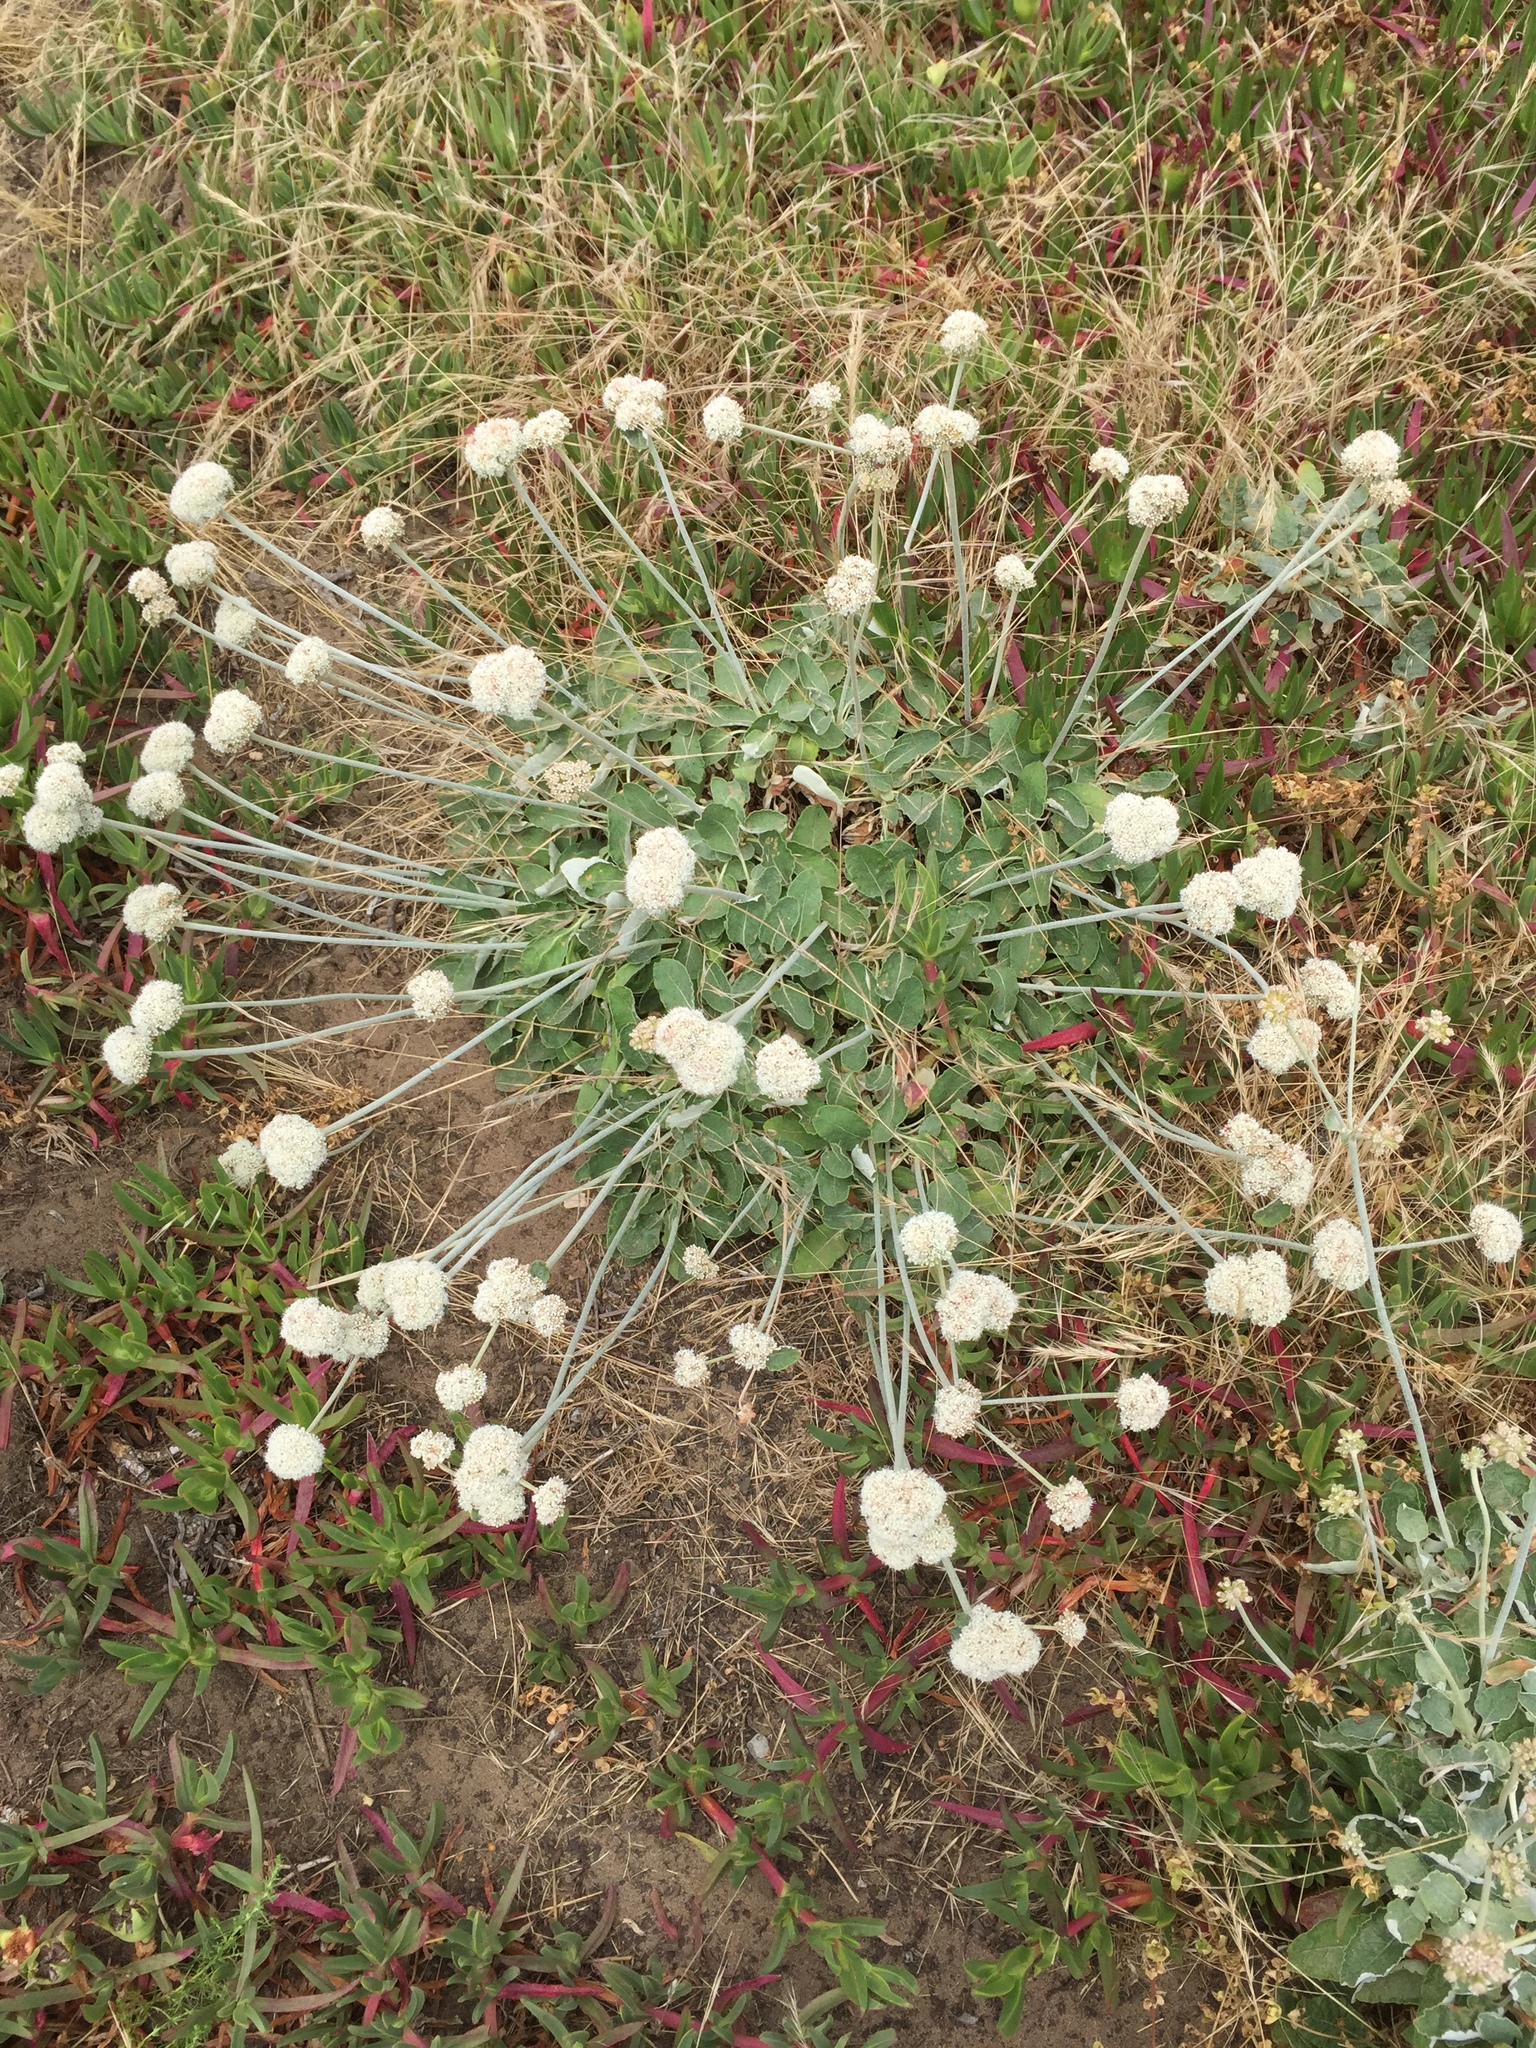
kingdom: Plantae
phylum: Tracheophyta
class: Magnoliopsida
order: Caryophyllales
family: Polygonaceae
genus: Eriogonum
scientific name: Eriogonum latifolium
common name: Seaside wild buckwheat
